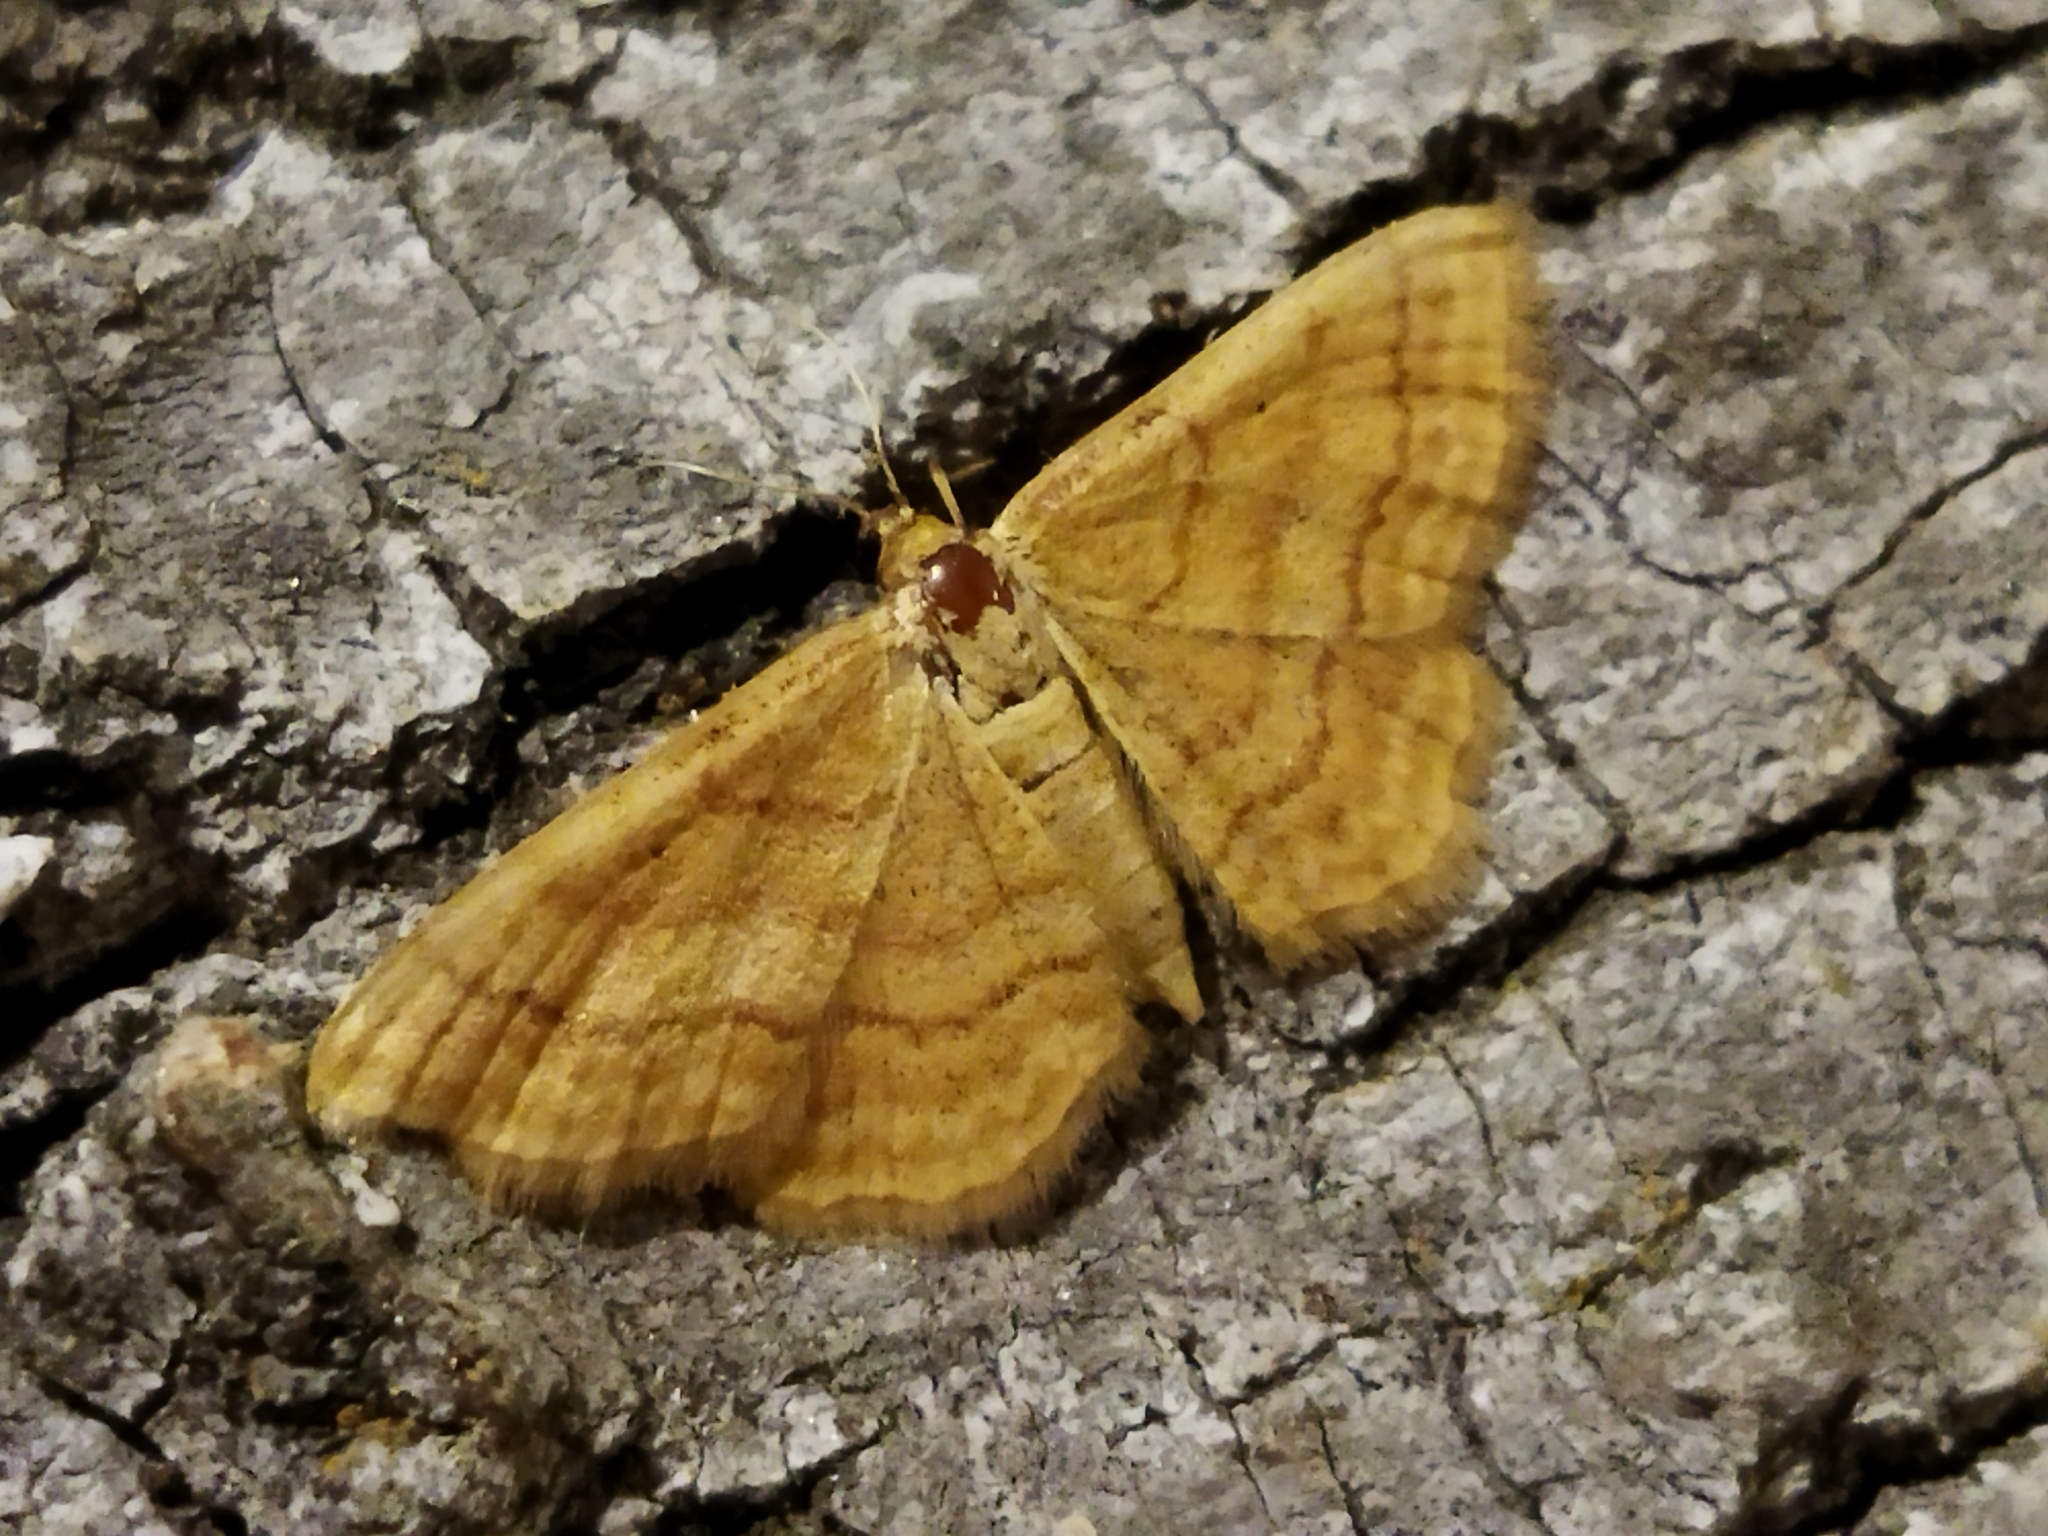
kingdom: Animalia
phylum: Arthropoda
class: Insecta
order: Lepidoptera
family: Geometridae
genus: Idaea
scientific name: Idaea ochrata
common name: Bright wave
